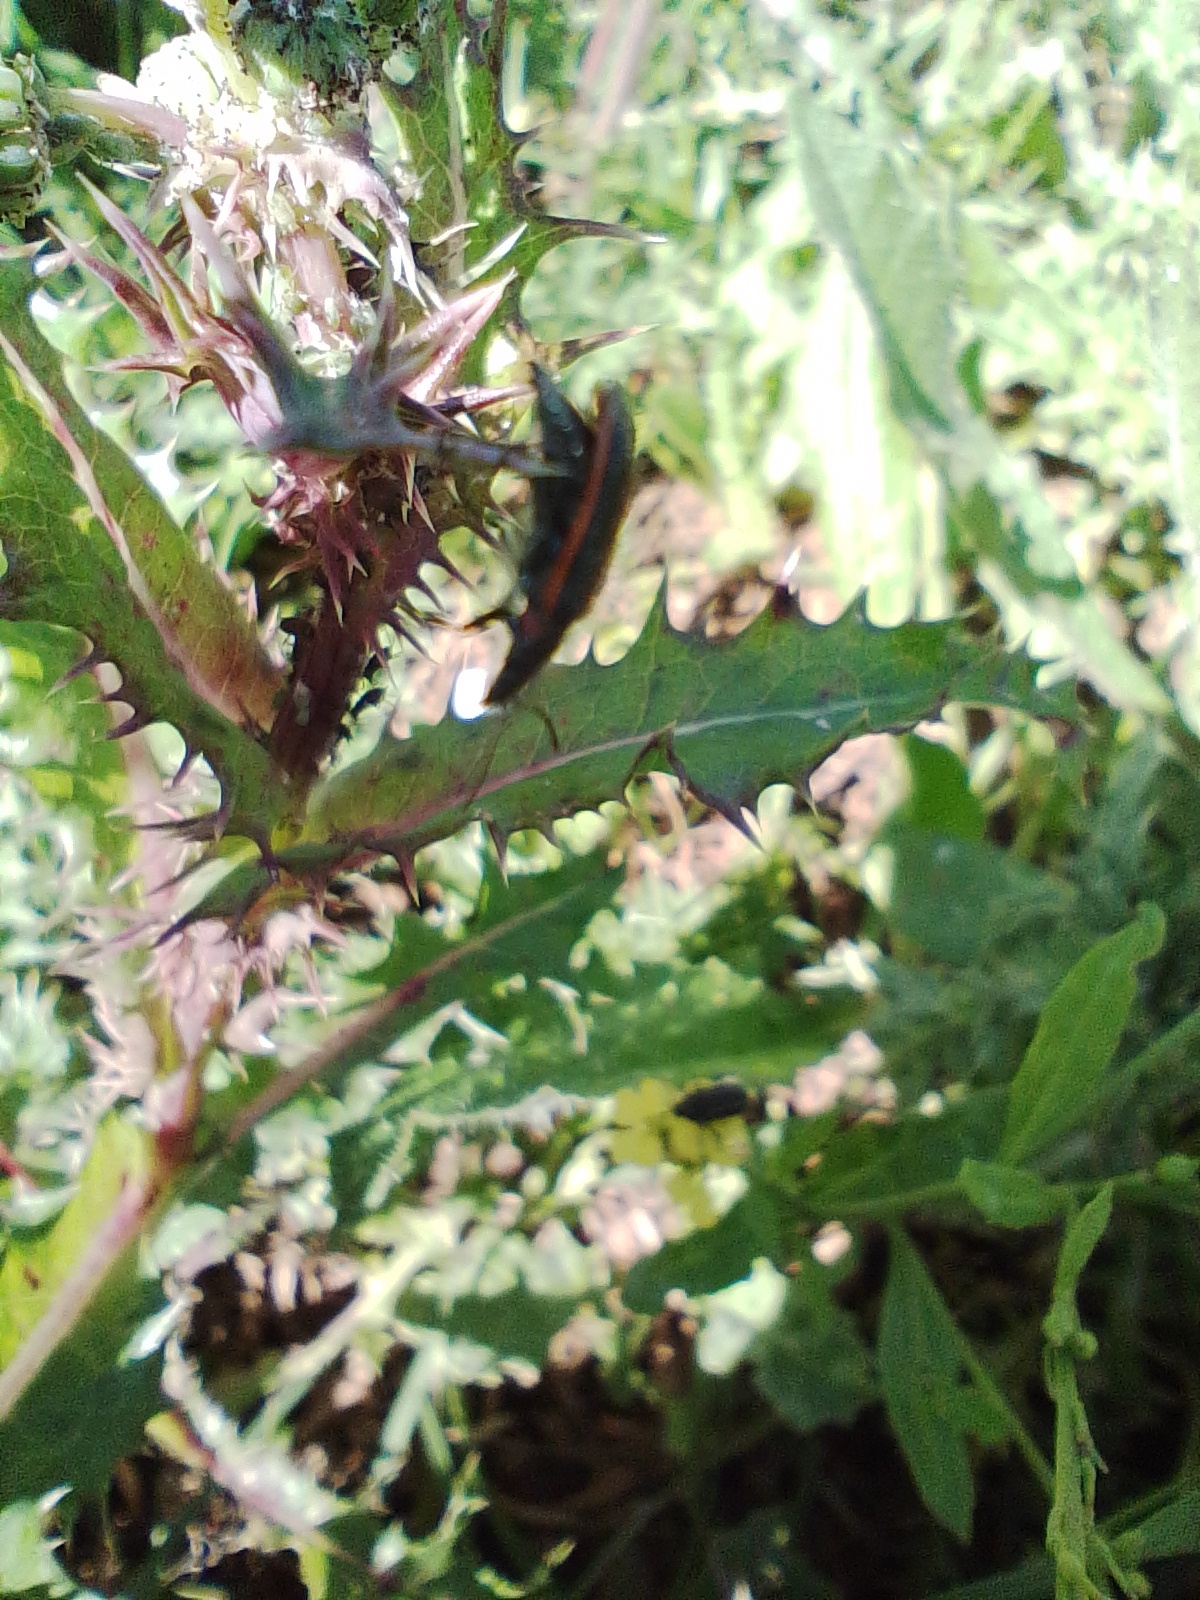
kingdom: Animalia
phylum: Arthropoda
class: Insecta
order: Coleoptera
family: Melyridae
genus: Astylus
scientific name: Astylus
